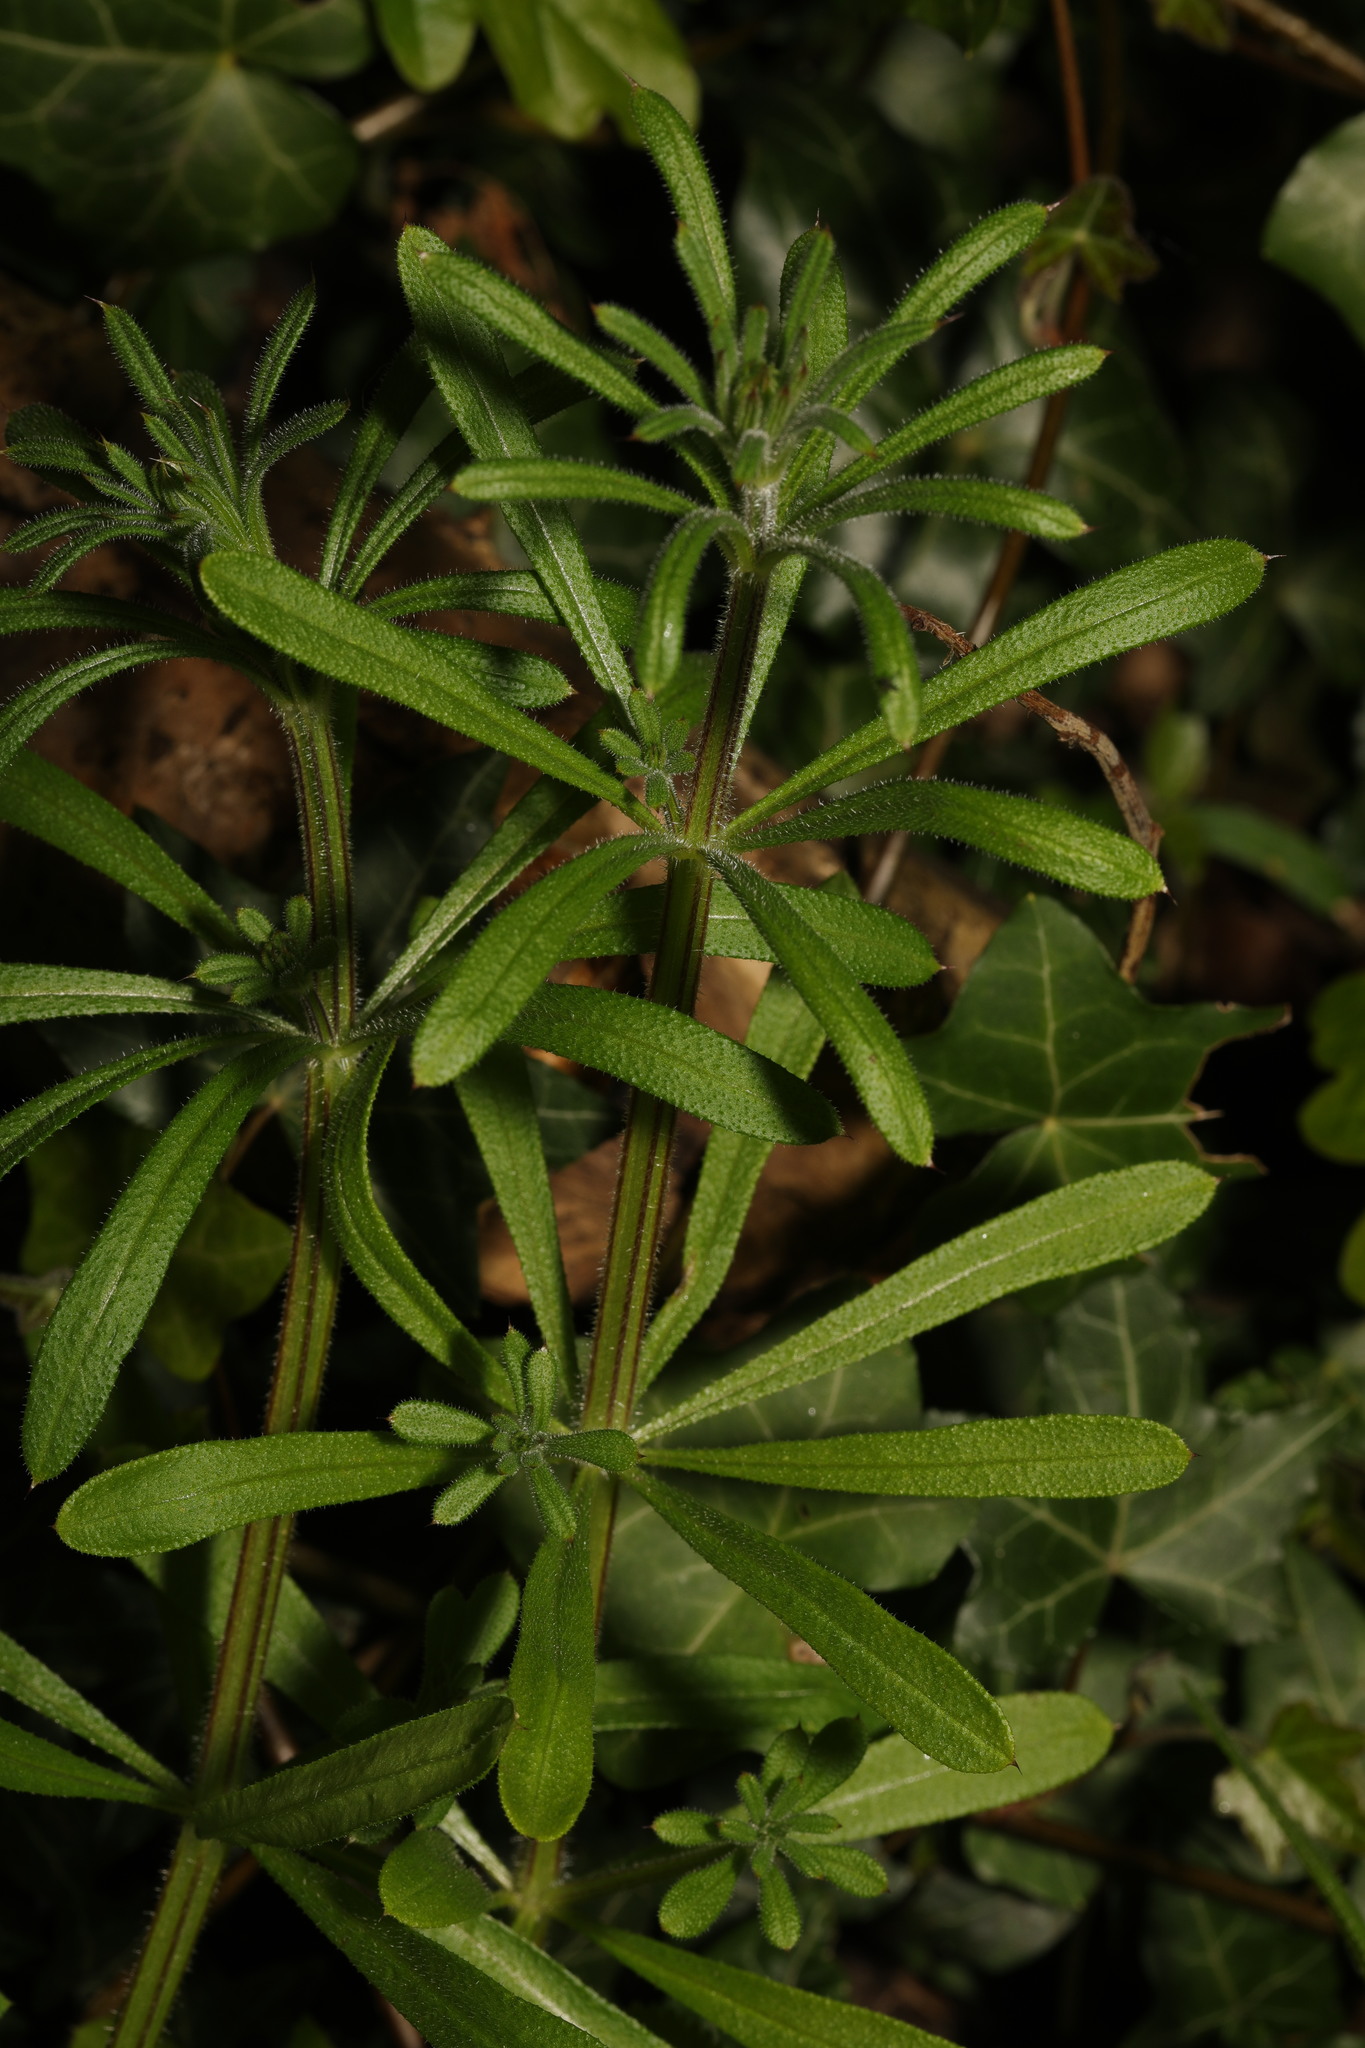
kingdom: Plantae
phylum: Tracheophyta
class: Magnoliopsida
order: Gentianales
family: Rubiaceae
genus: Galium
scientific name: Galium aparine
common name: Cleavers
